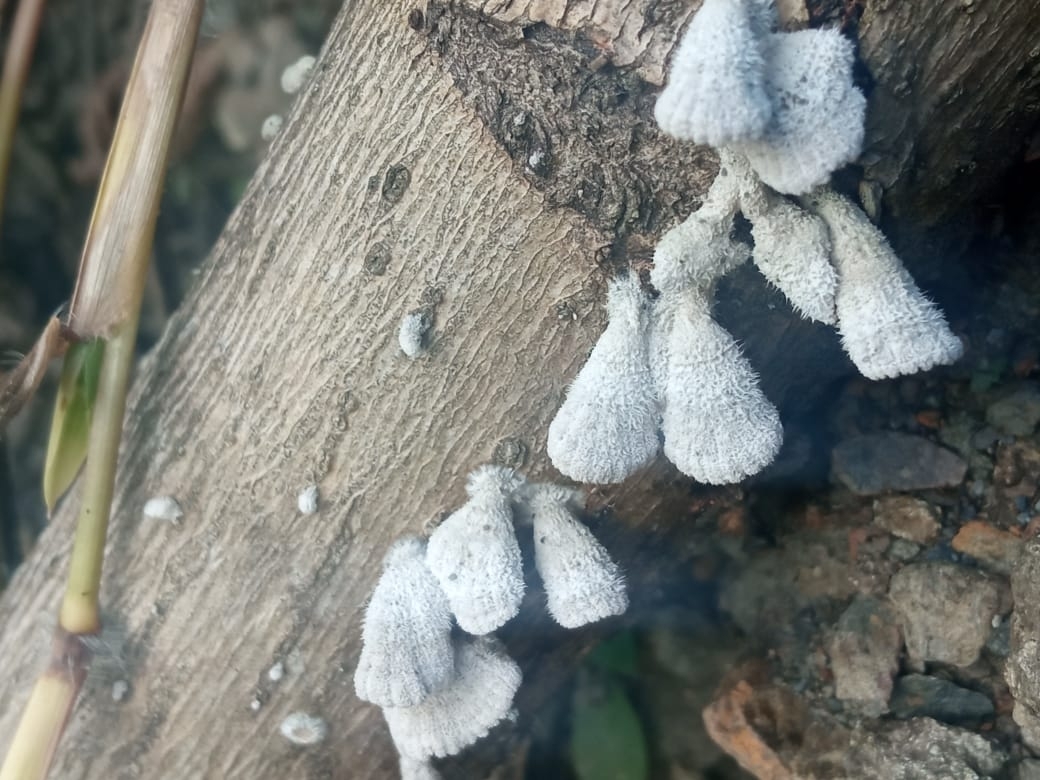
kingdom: Fungi
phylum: Basidiomycota
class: Agaricomycetes
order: Agaricales
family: Schizophyllaceae
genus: Schizophyllum
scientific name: Schizophyllum commune
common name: Common porecrust
